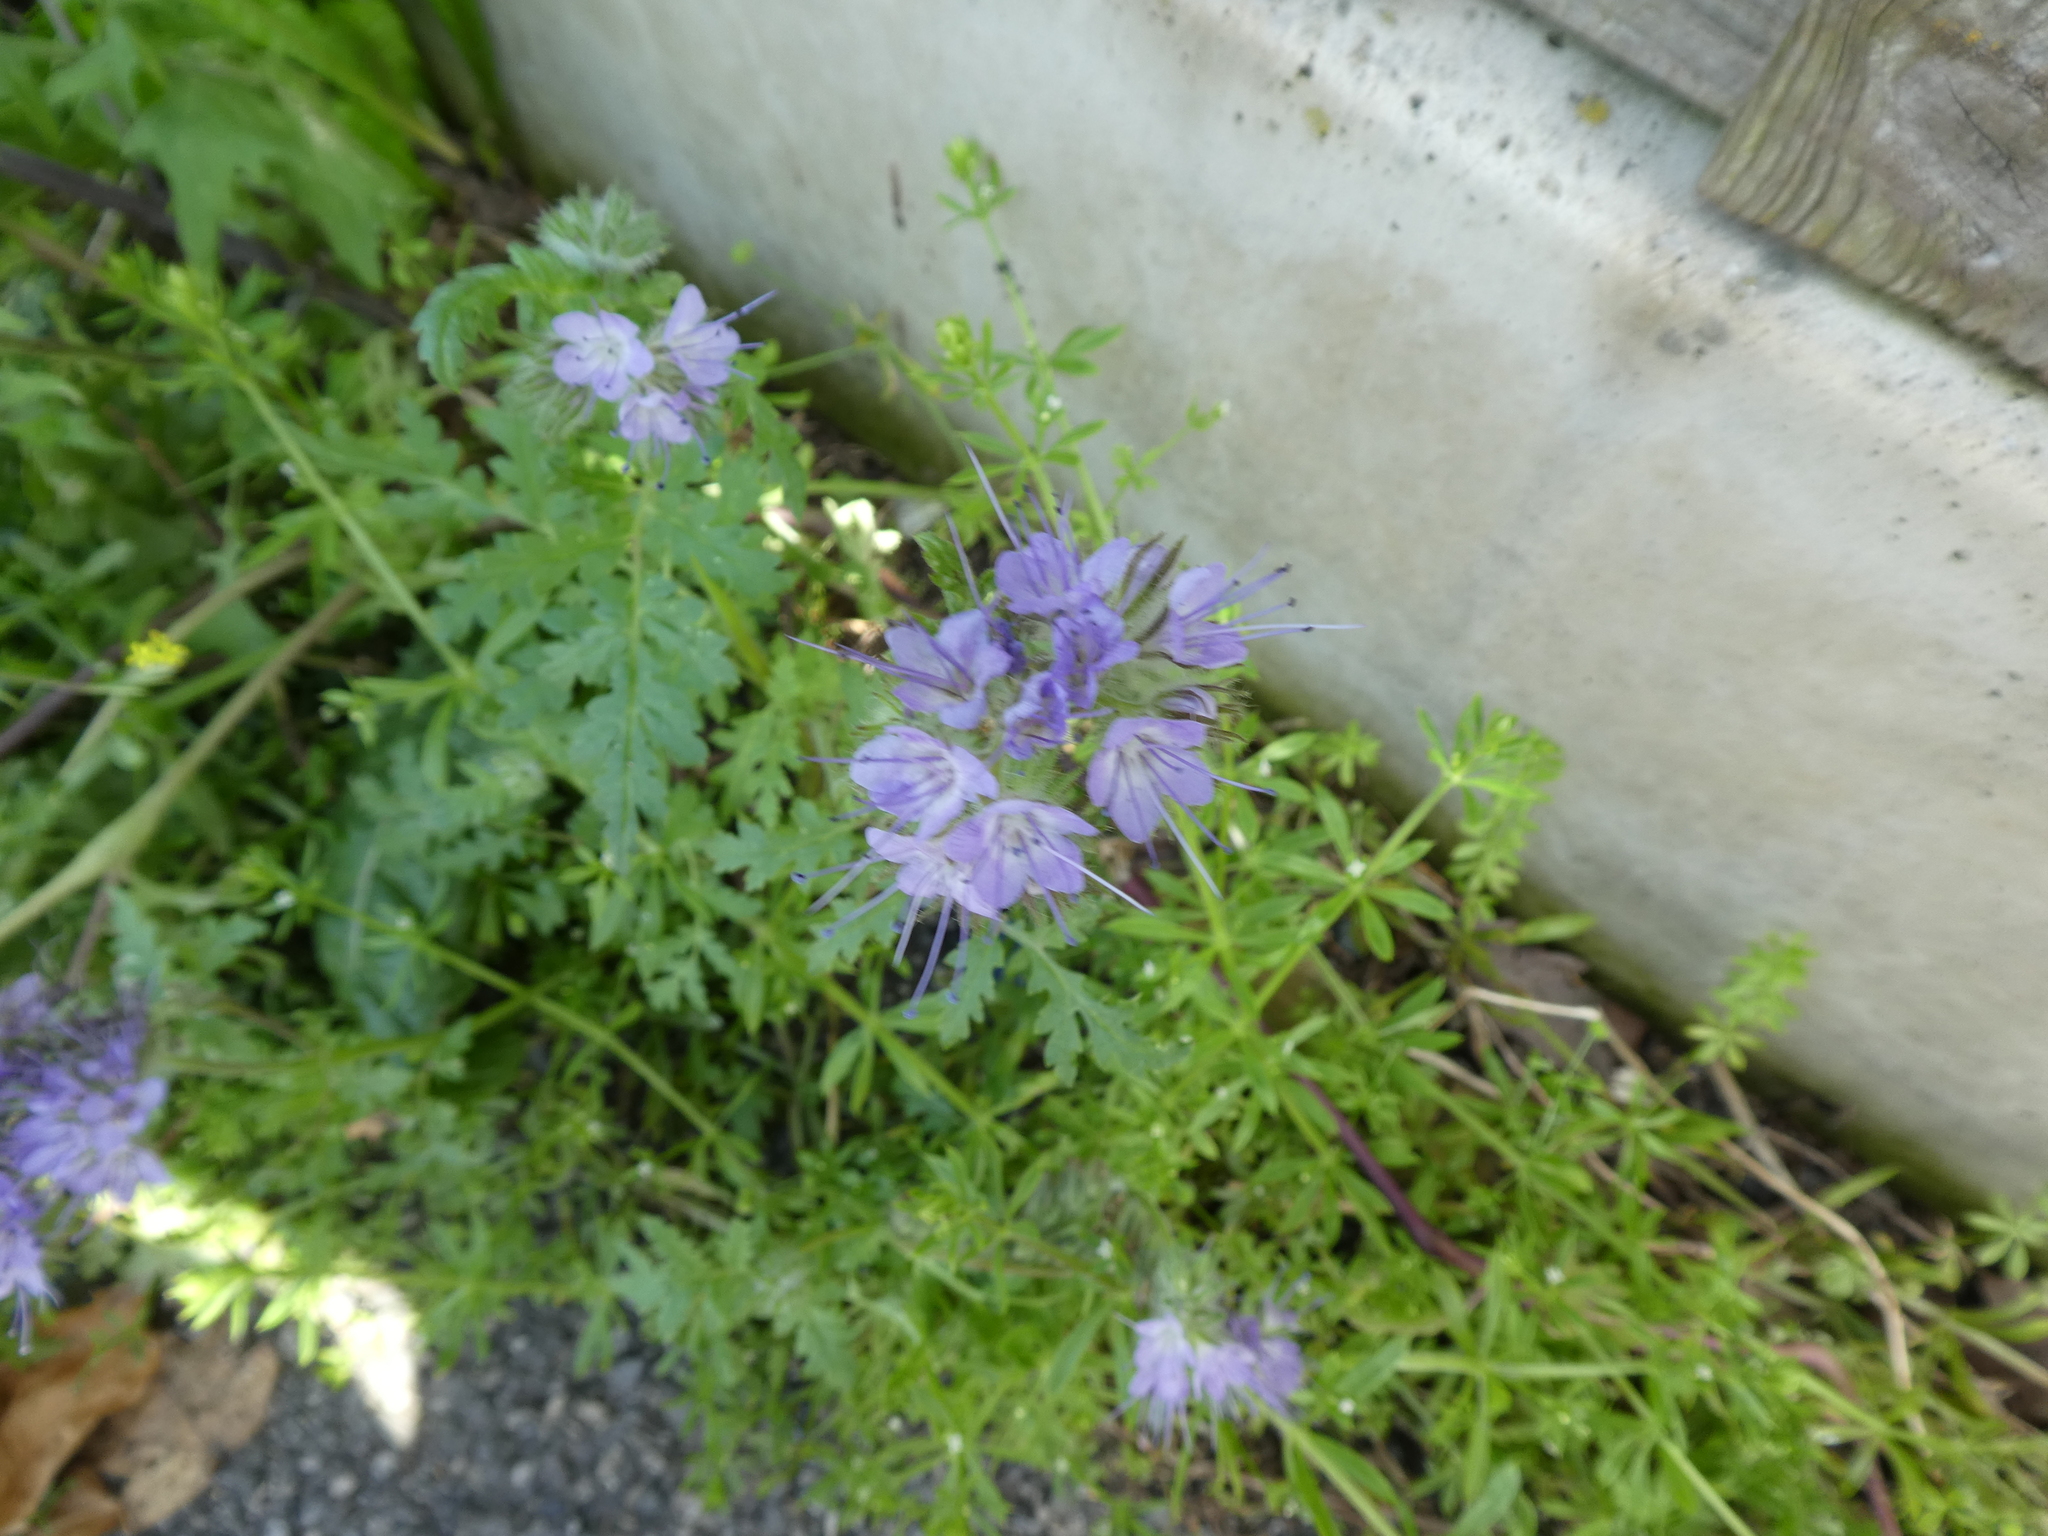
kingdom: Plantae
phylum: Tracheophyta
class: Magnoliopsida
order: Boraginales
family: Hydrophyllaceae
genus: Phacelia
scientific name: Phacelia tanacetifolia
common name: Phacelia
